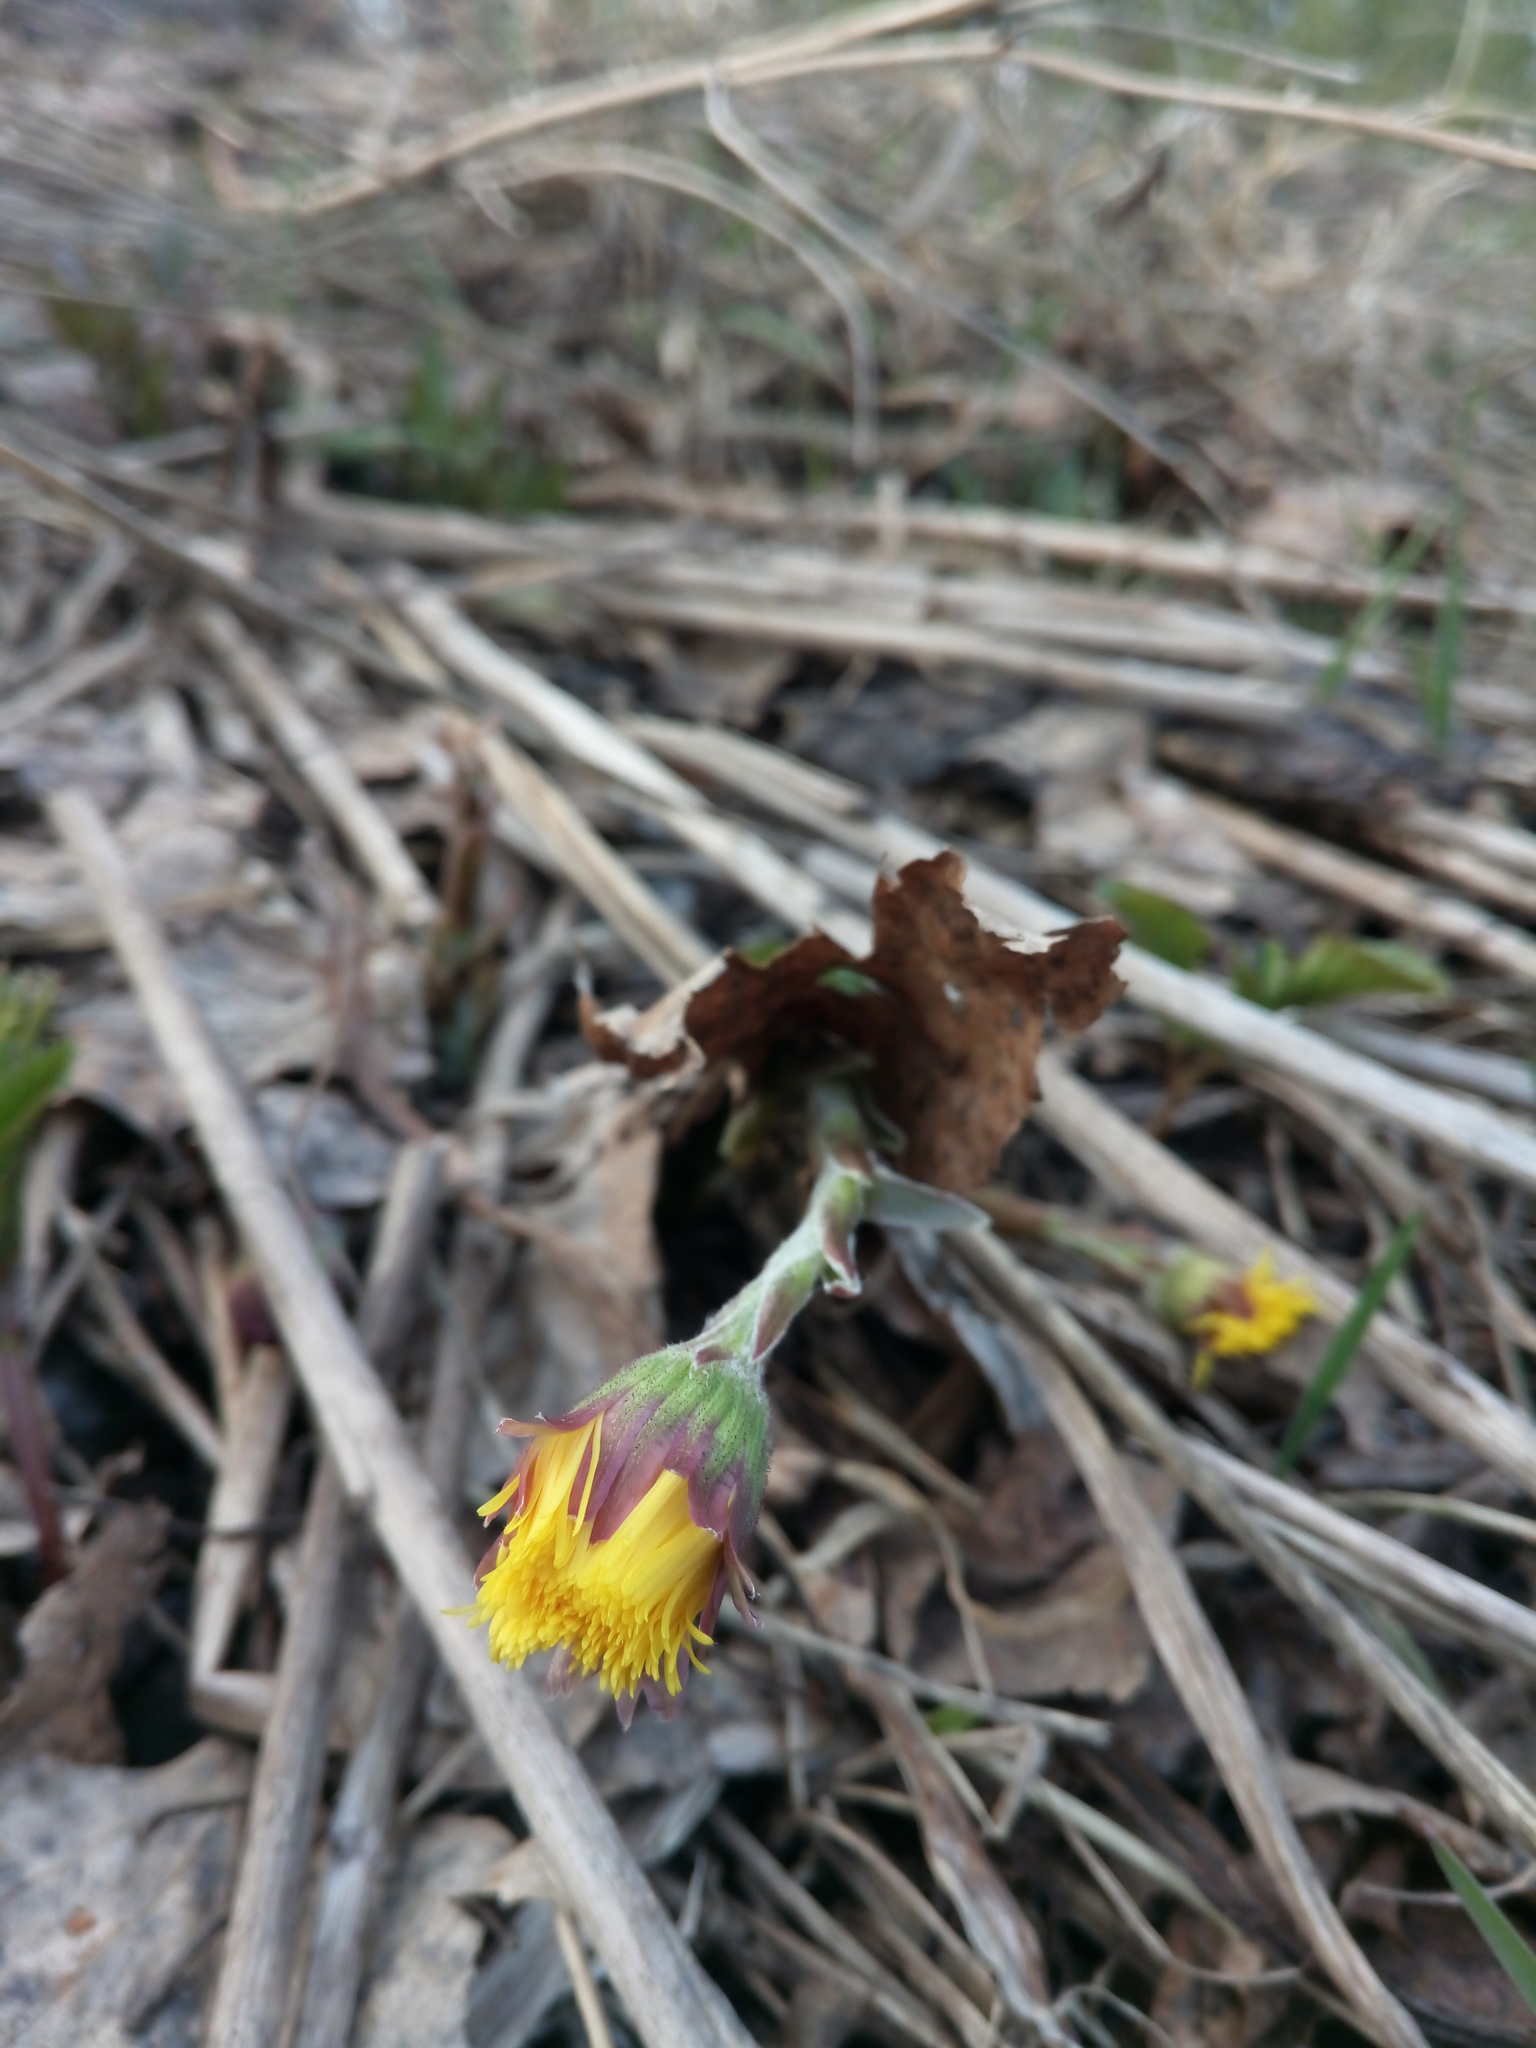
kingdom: Plantae
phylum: Tracheophyta
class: Magnoliopsida
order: Asterales
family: Asteraceae
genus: Tussilago
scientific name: Tussilago farfara
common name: Coltsfoot
